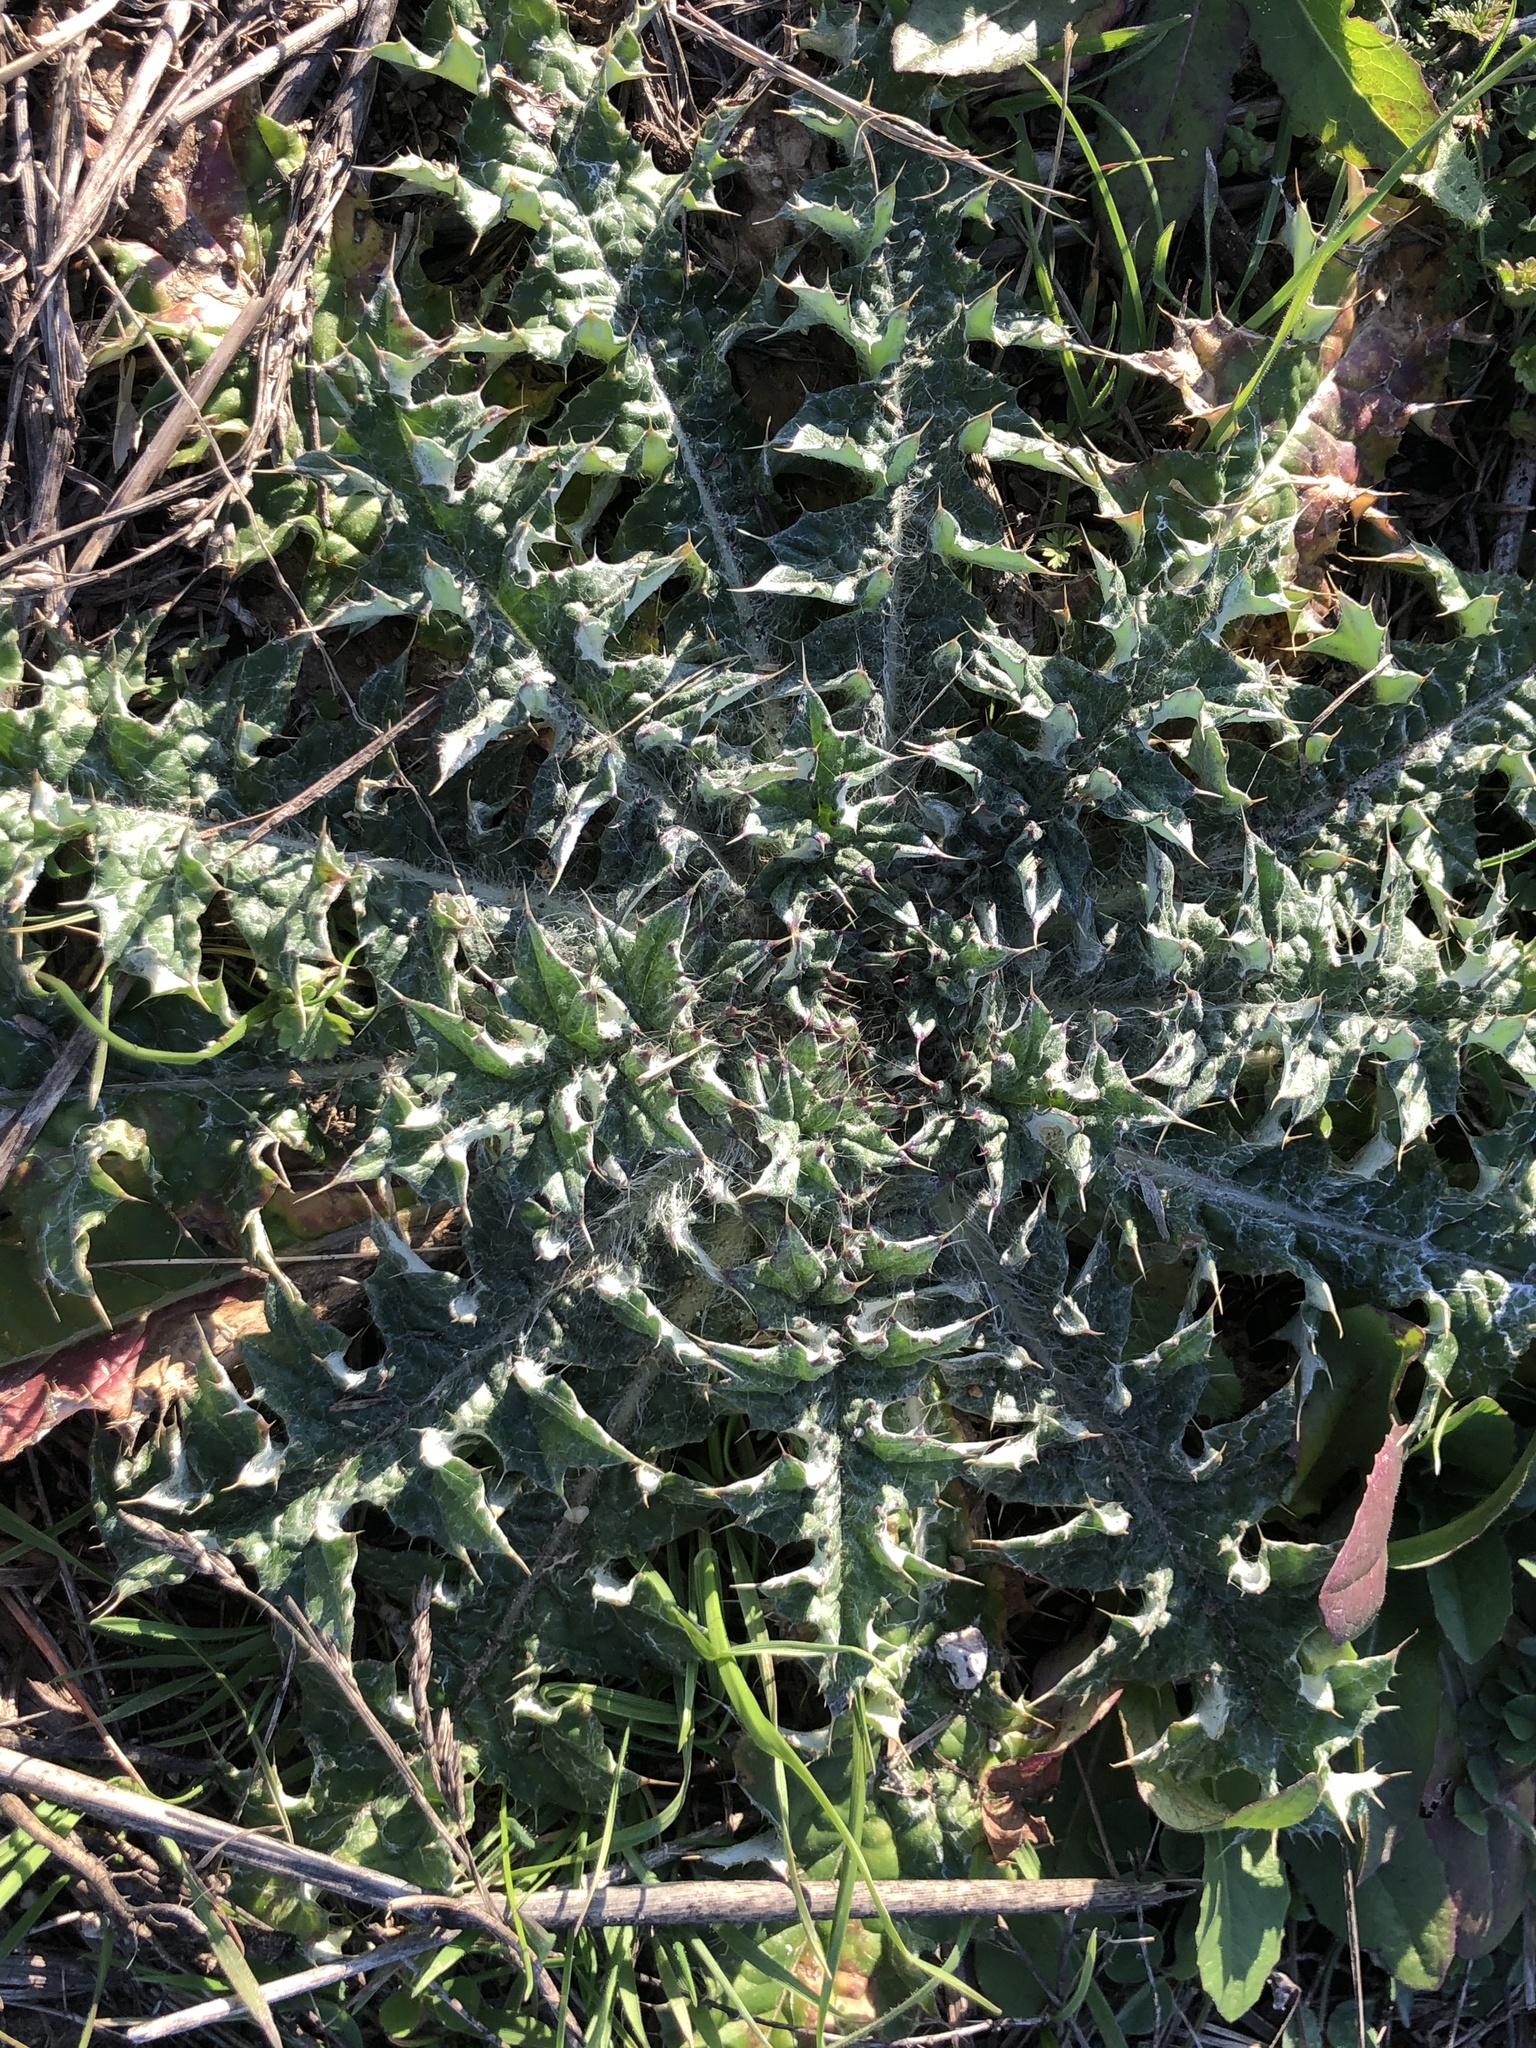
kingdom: Plantae
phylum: Tracheophyta
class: Magnoliopsida
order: Asterales
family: Asteraceae
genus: Cirsium
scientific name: Cirsium horridulum
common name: Bristly thistle
